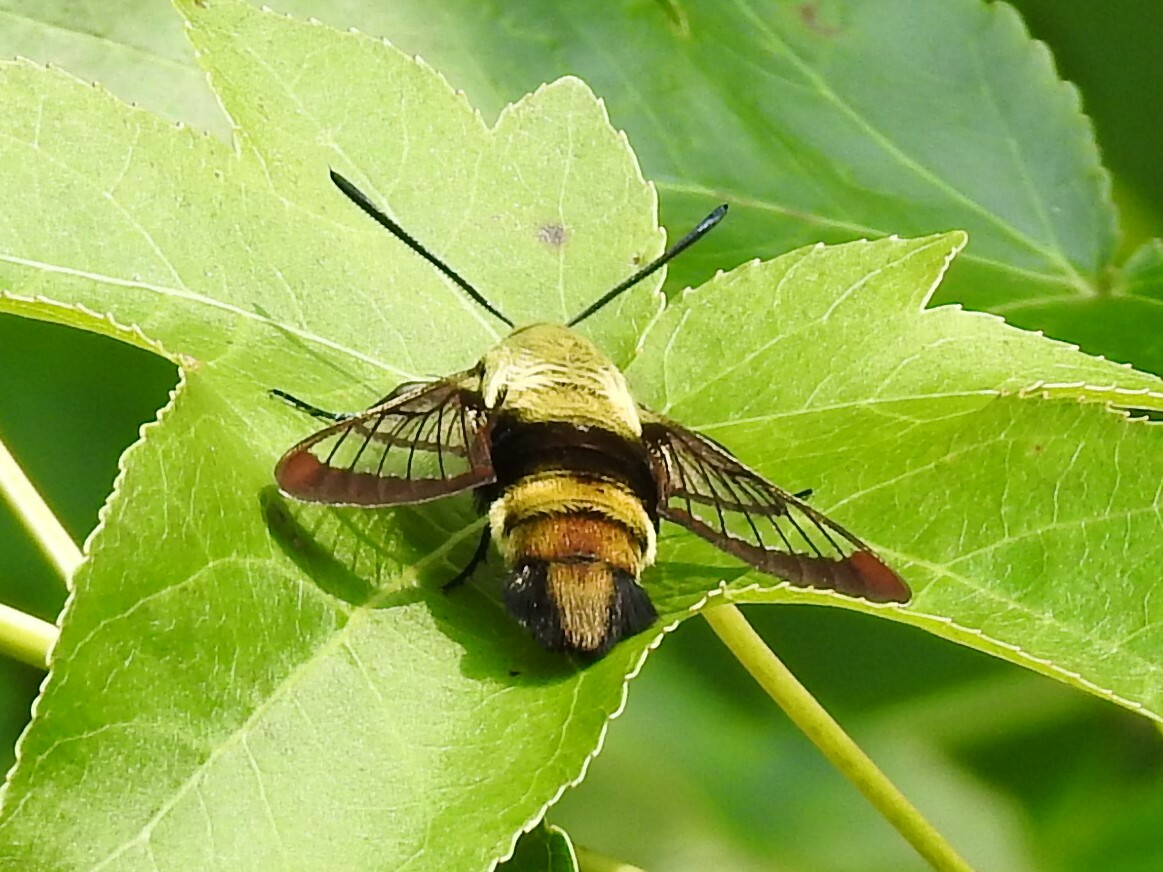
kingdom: Animalia
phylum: Arthropoda
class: Insecta
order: Lepidoptera
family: Sphingidae
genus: Hemaris
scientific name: Hemaris diffinis
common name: Bumblebee moth
